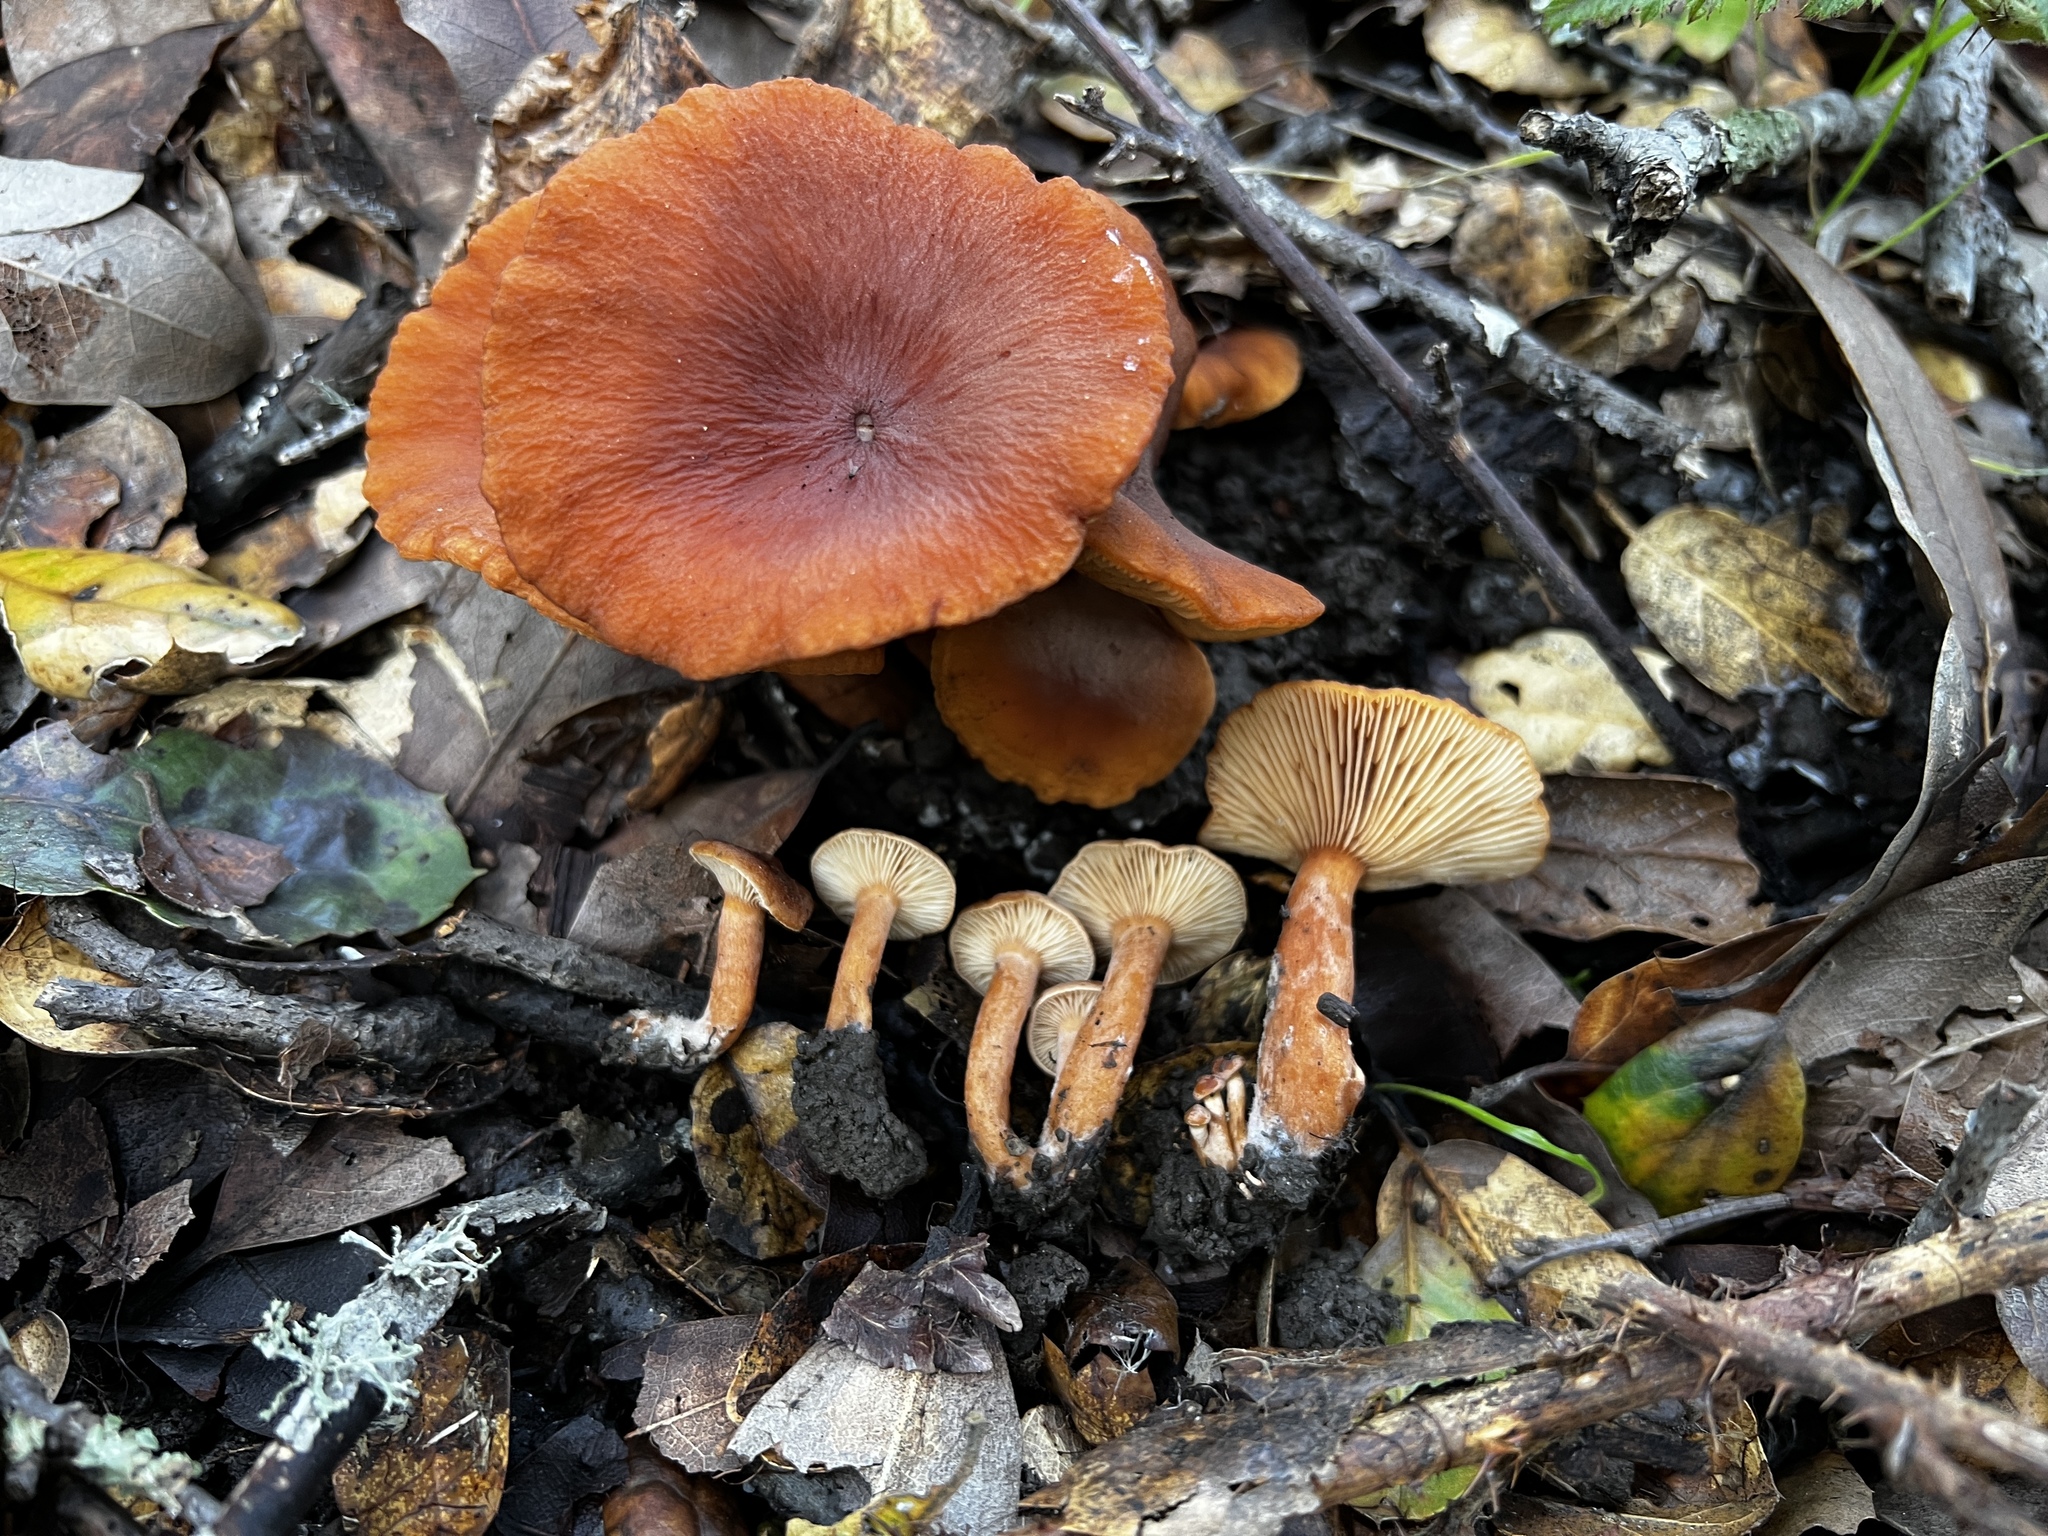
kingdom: Fungi
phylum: Basidiomycota
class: Agaricomycetes
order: Russulales
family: Russulaceae
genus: Lactarius
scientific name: Lactarius rubidus
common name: Candy cap
